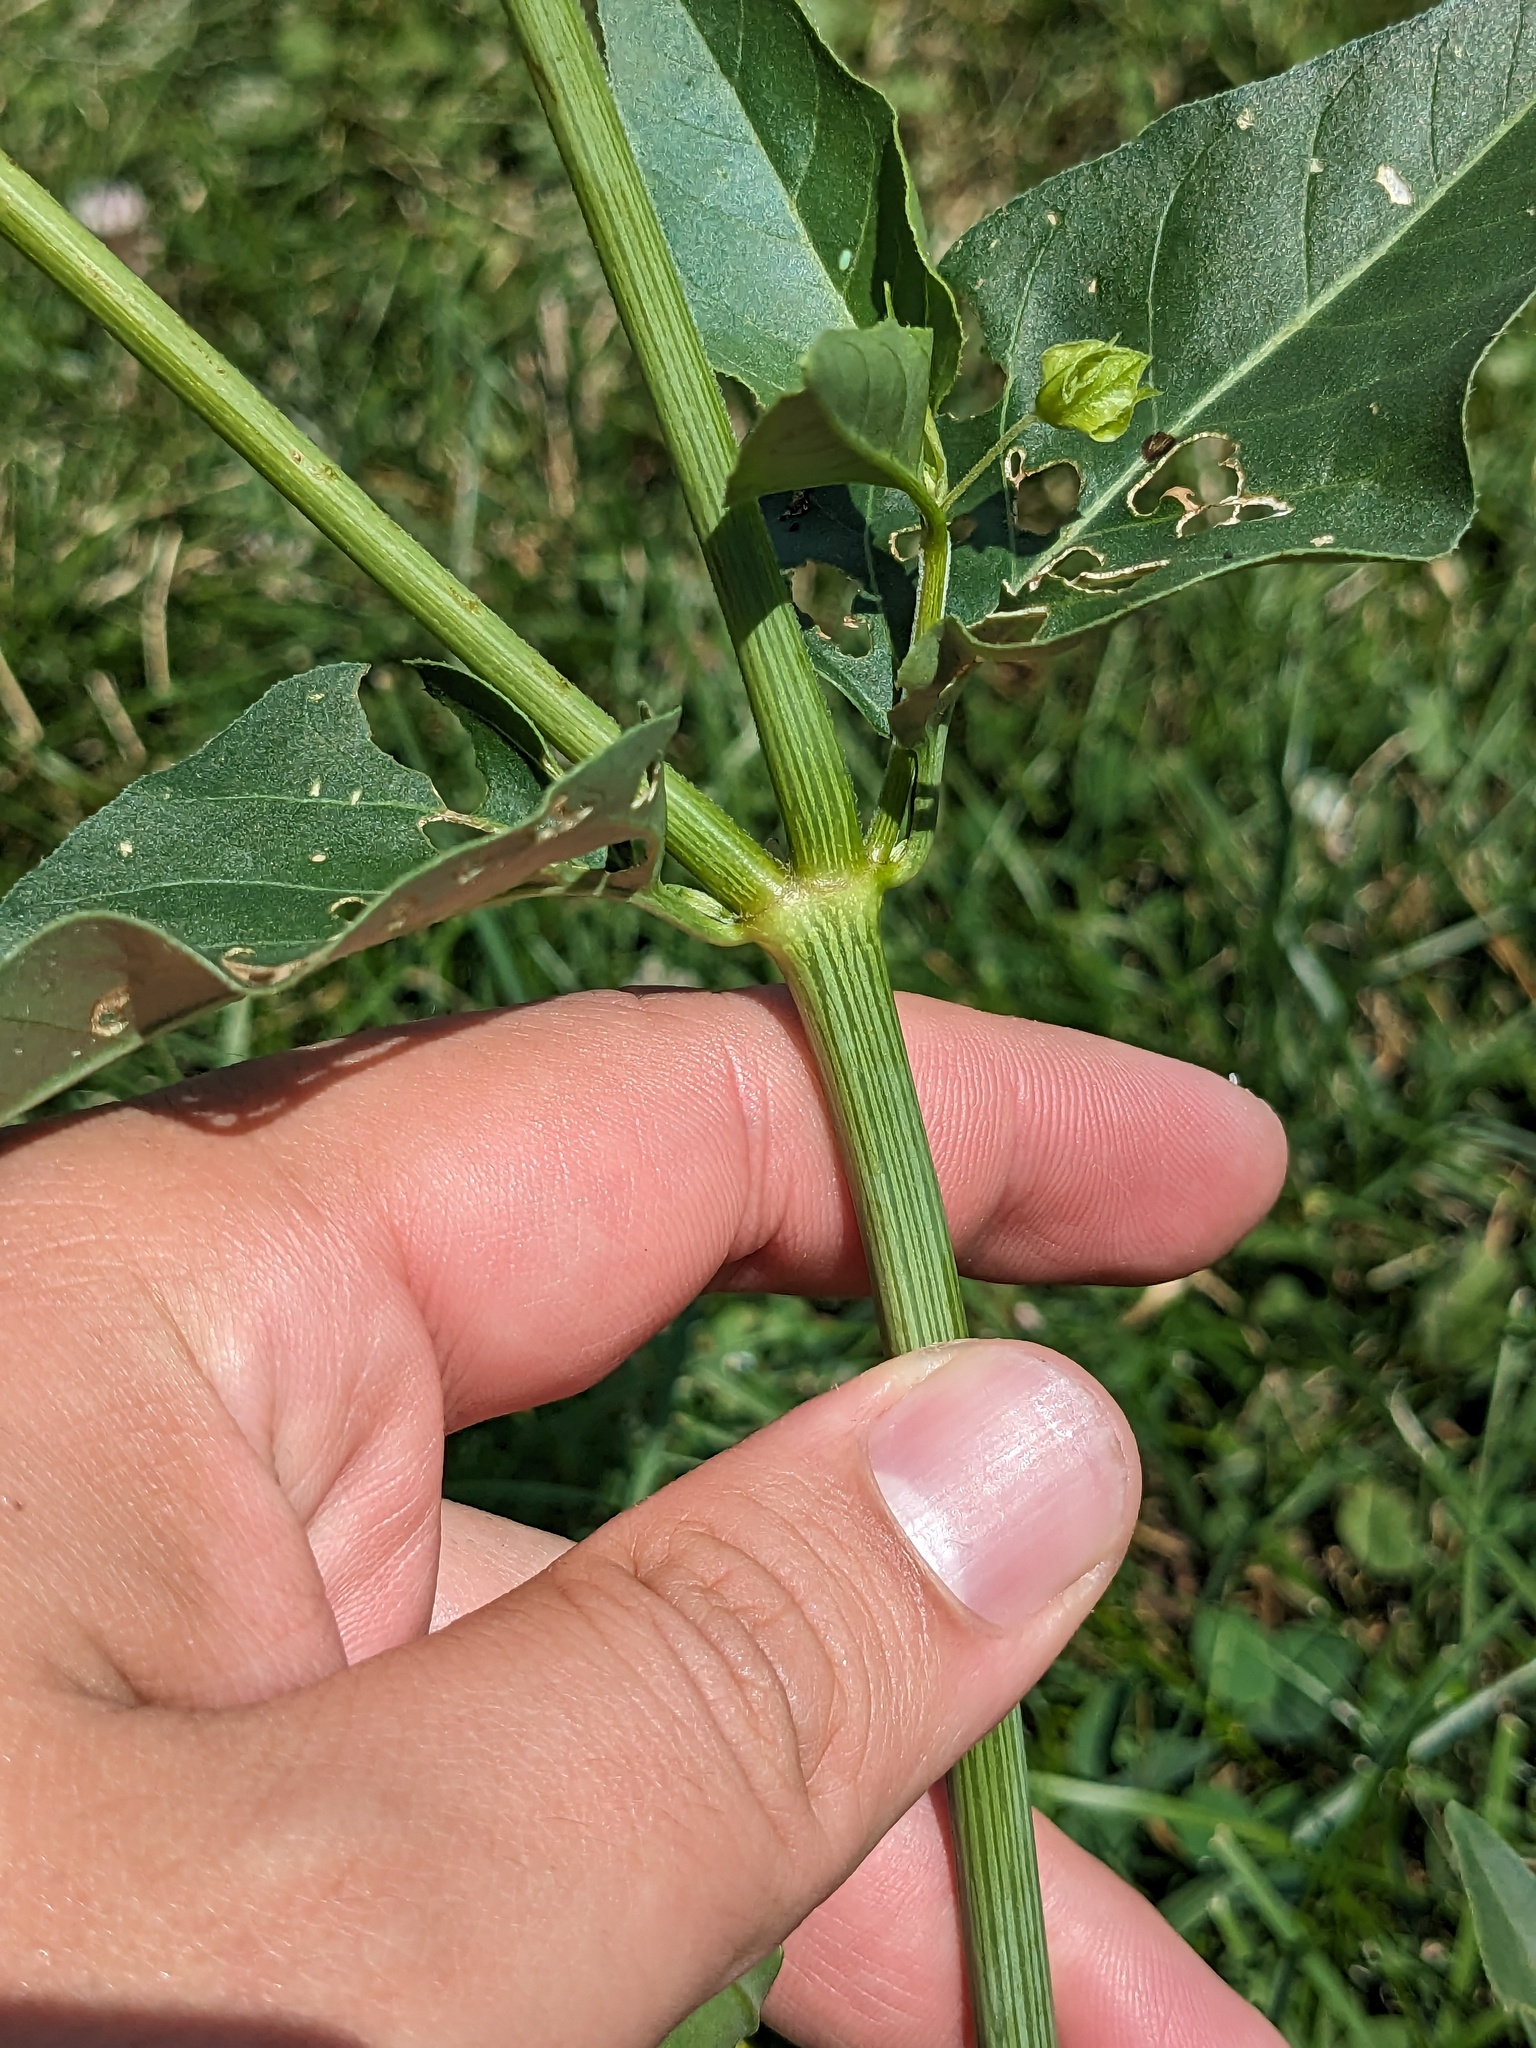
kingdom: Plantae
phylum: Tracheophyta
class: Magnoliopsida
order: Caryophyllales
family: Nyctaginaceae
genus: Mirabilis
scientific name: Mirabilis nyctaginea
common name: Umbrella wort
